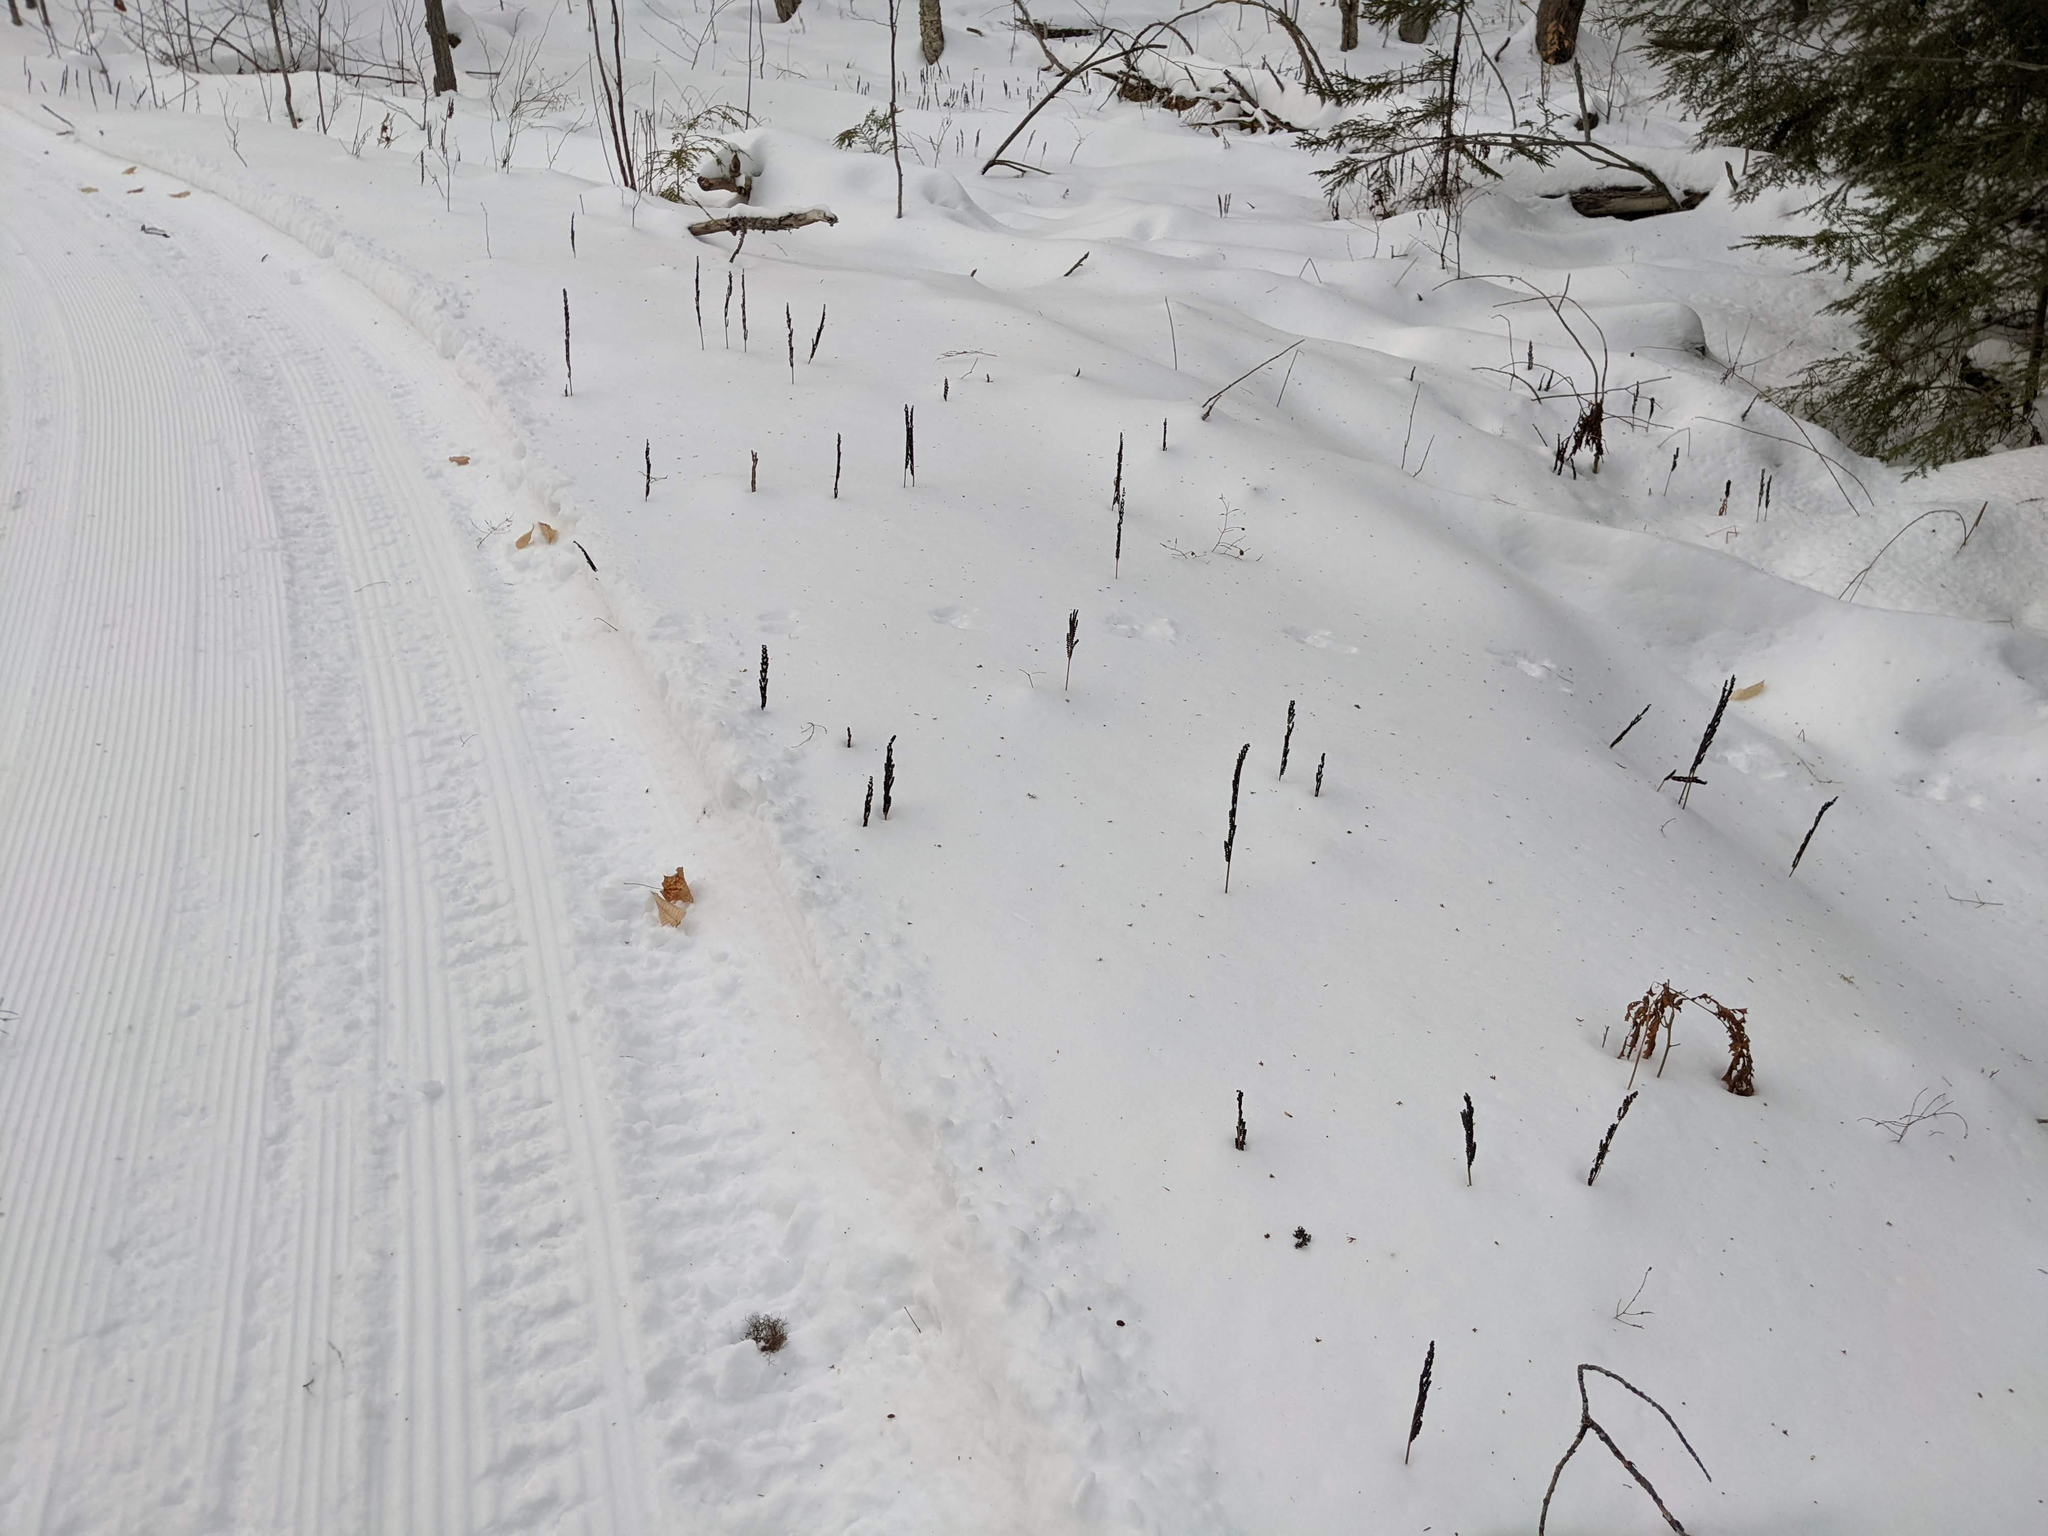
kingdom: Plantae
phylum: Tracheophyta
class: Polypodiopsida
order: Polypodiales
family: Onocleaceae
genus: Onoclea
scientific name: Onoclea sensibilis
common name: Sensitive fern
